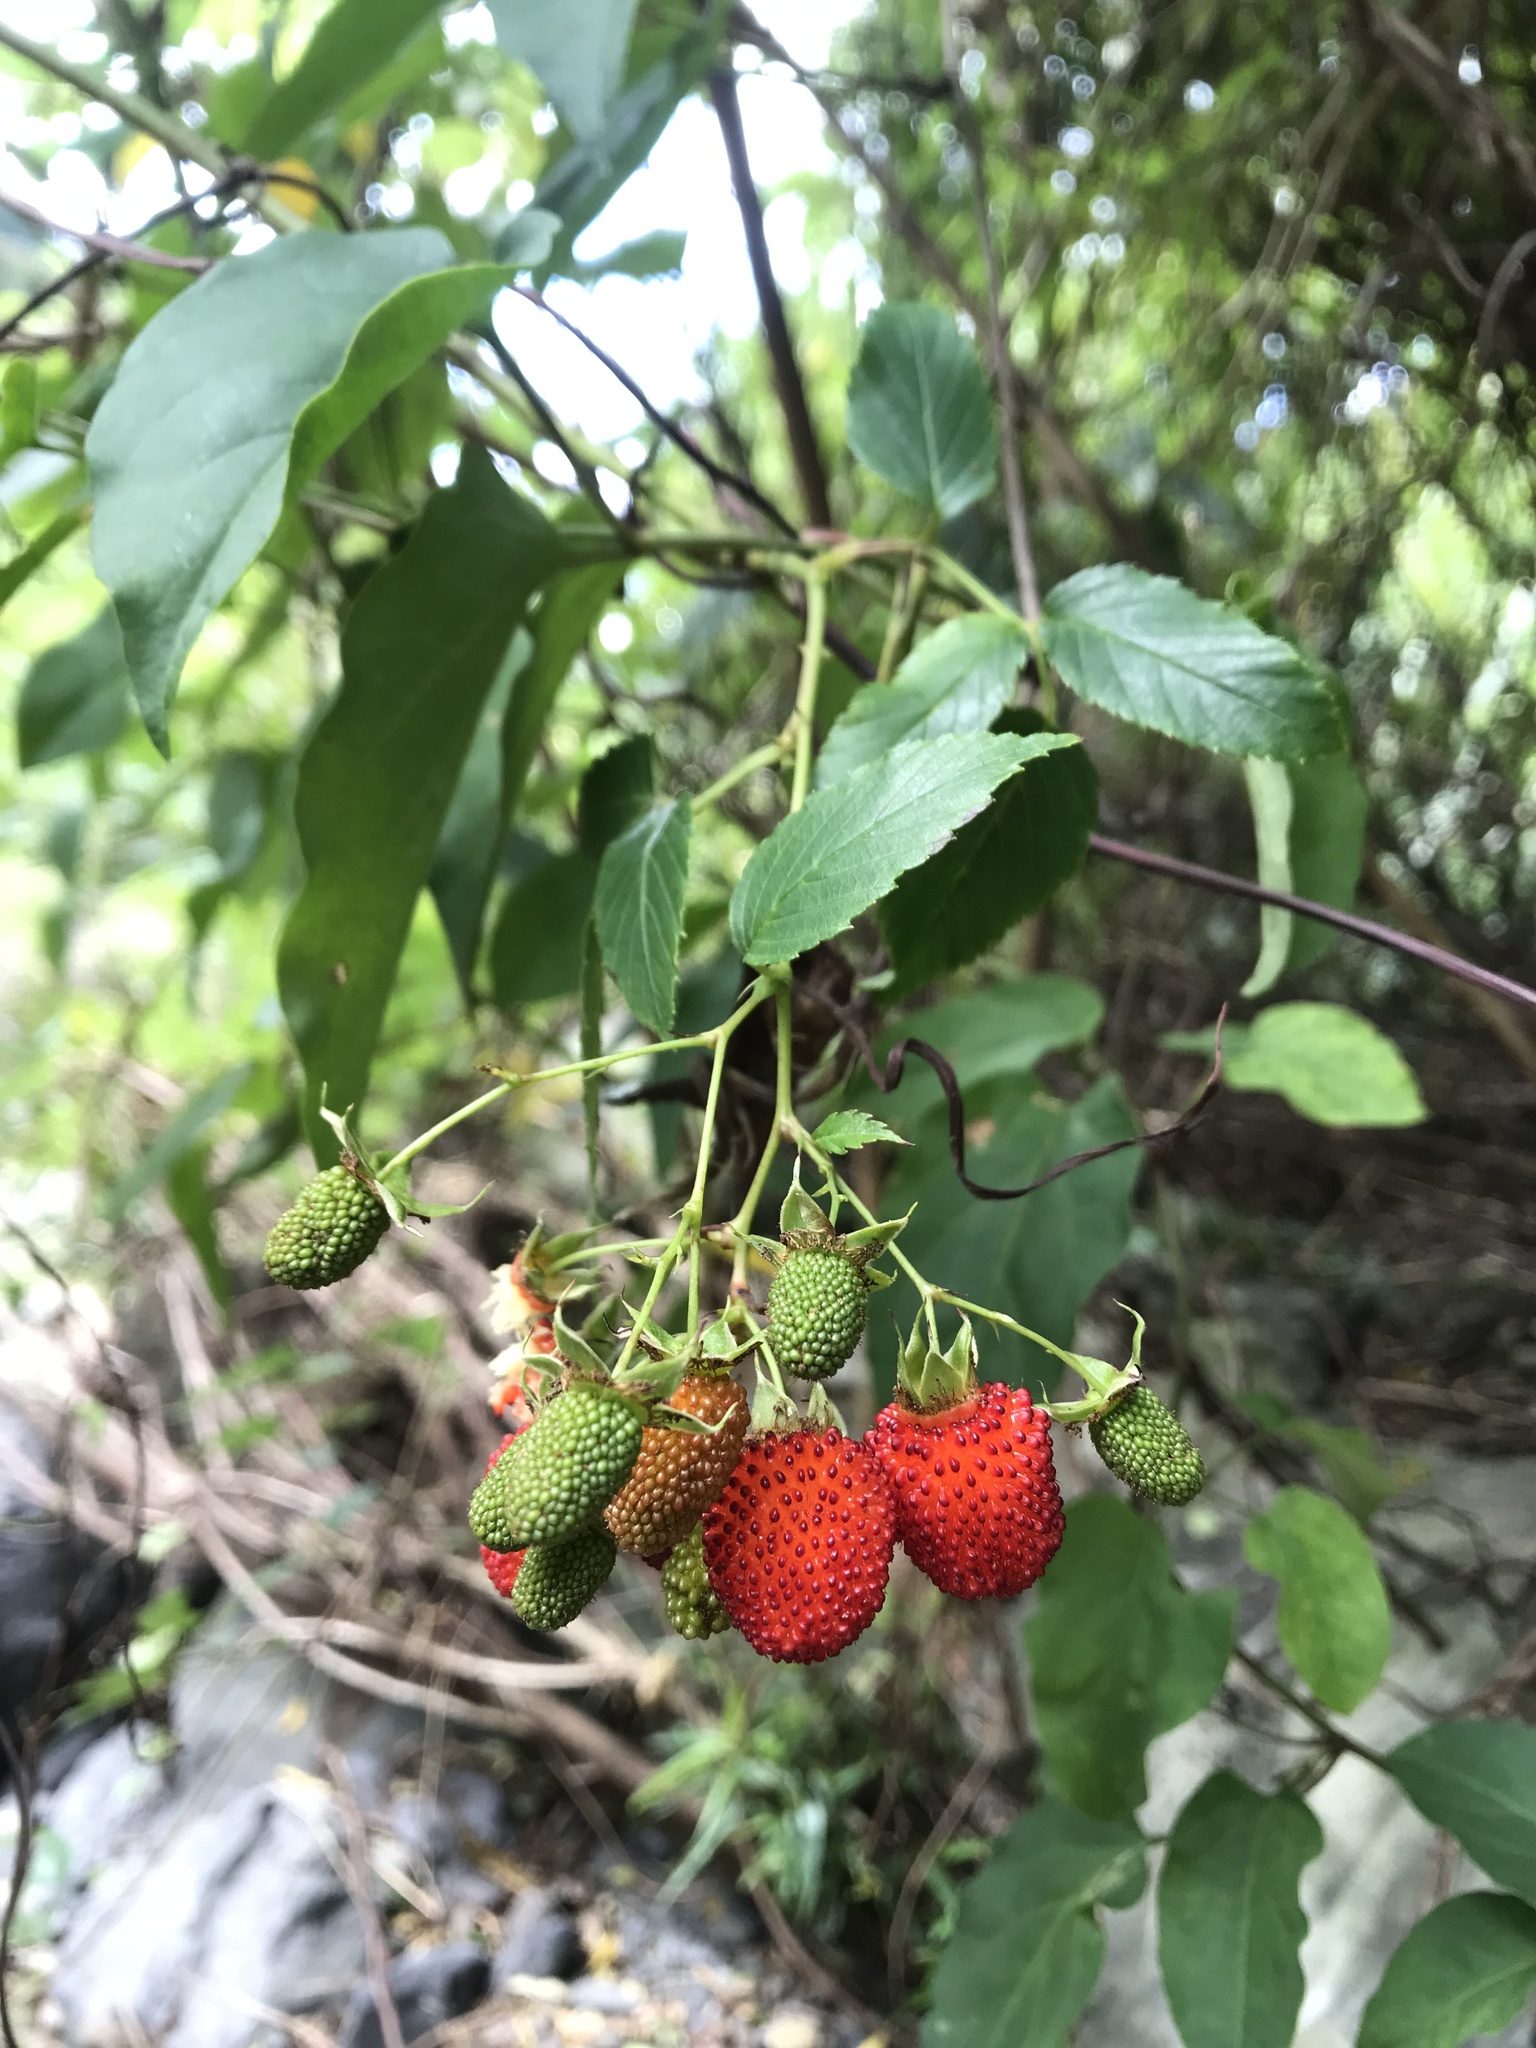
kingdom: Plantae
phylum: Tracheophyta
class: Magnoliopsida
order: Rosales
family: Rosaceae
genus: Rubus
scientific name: Rubus fraxinifolius
